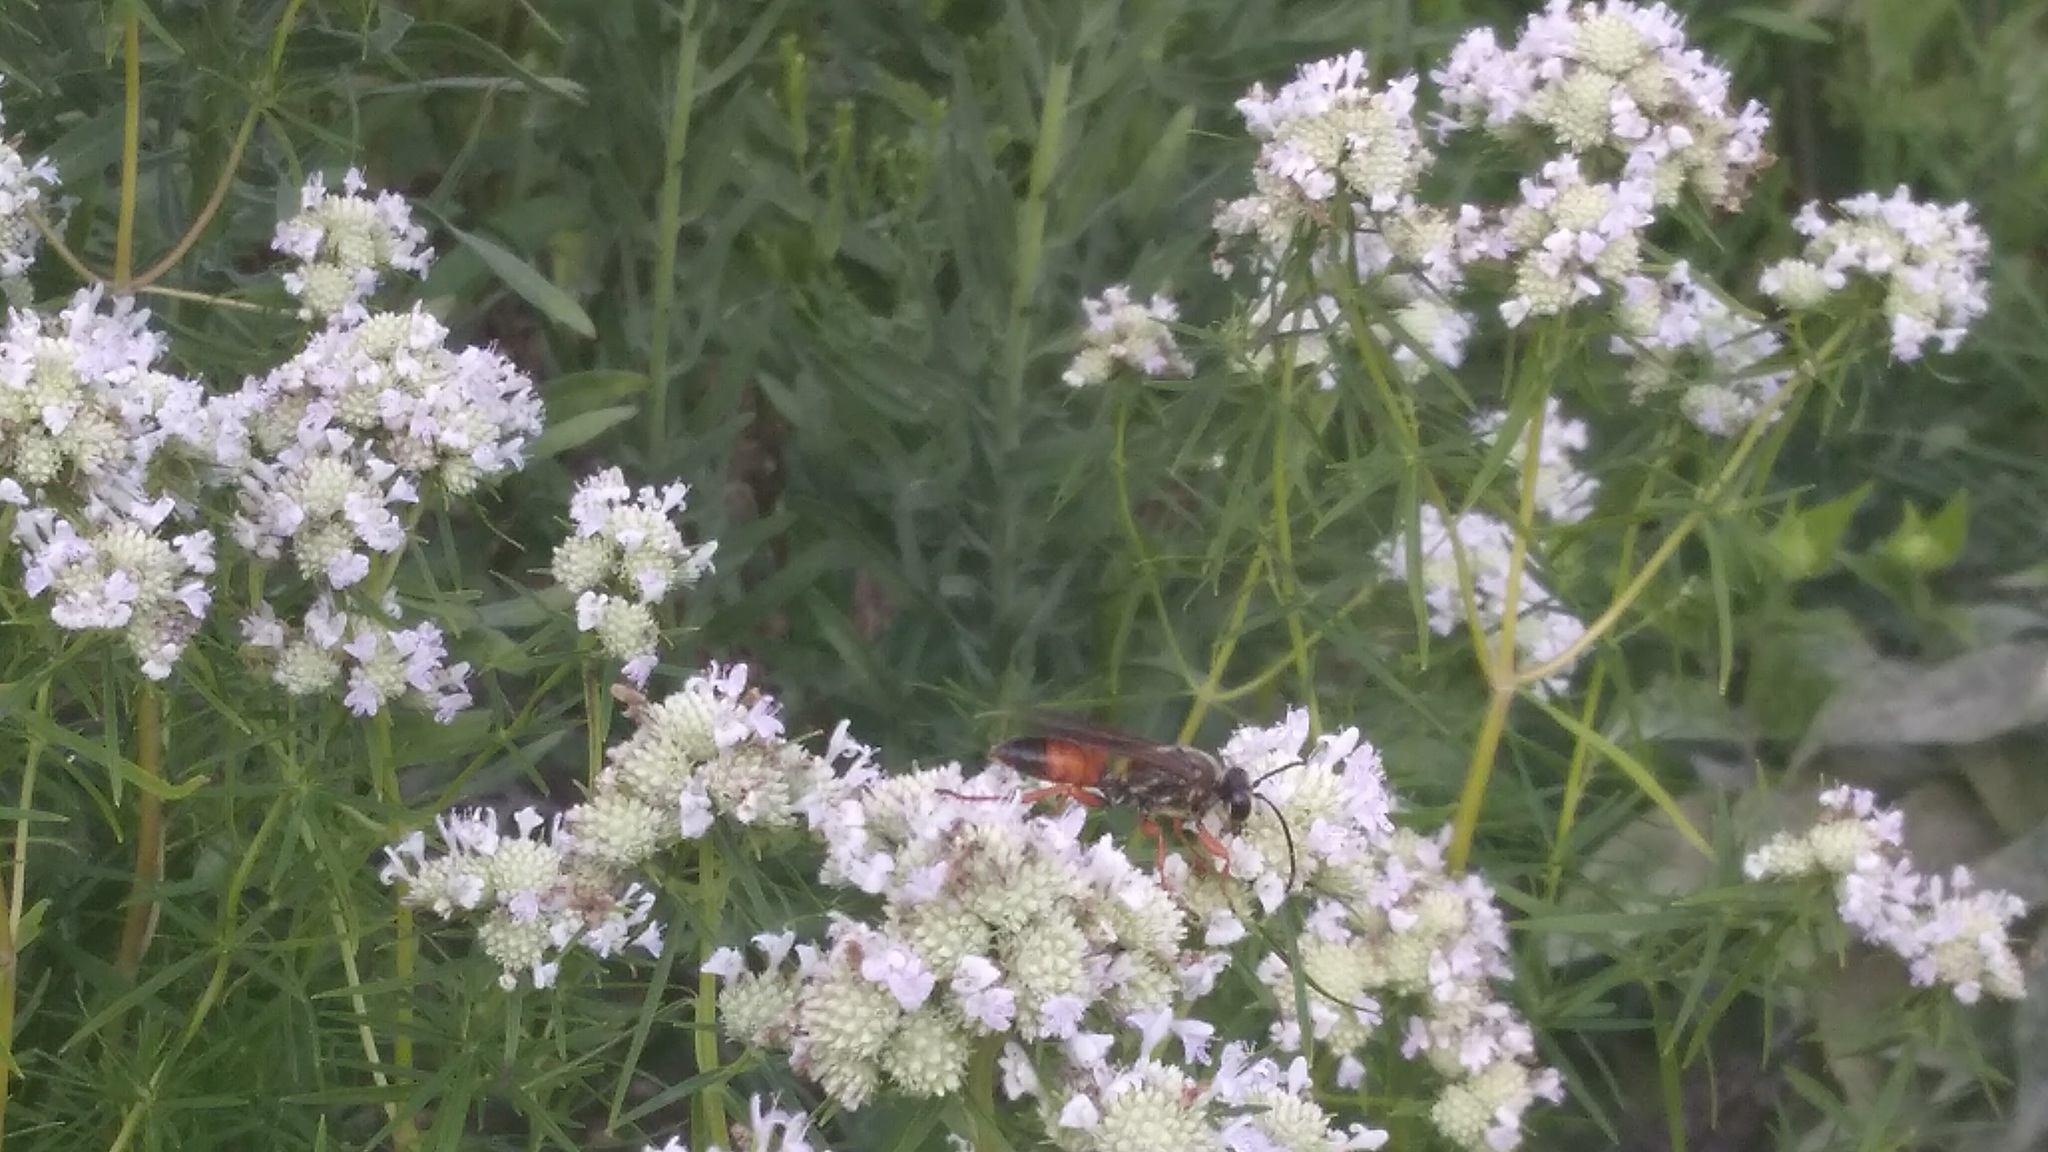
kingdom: Animalia
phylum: Arthropoda
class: Insecta
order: Hymenoptera
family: Sphecidae
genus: Sphex
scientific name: Sphex ichneumoneus
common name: Great golden digger wasp
